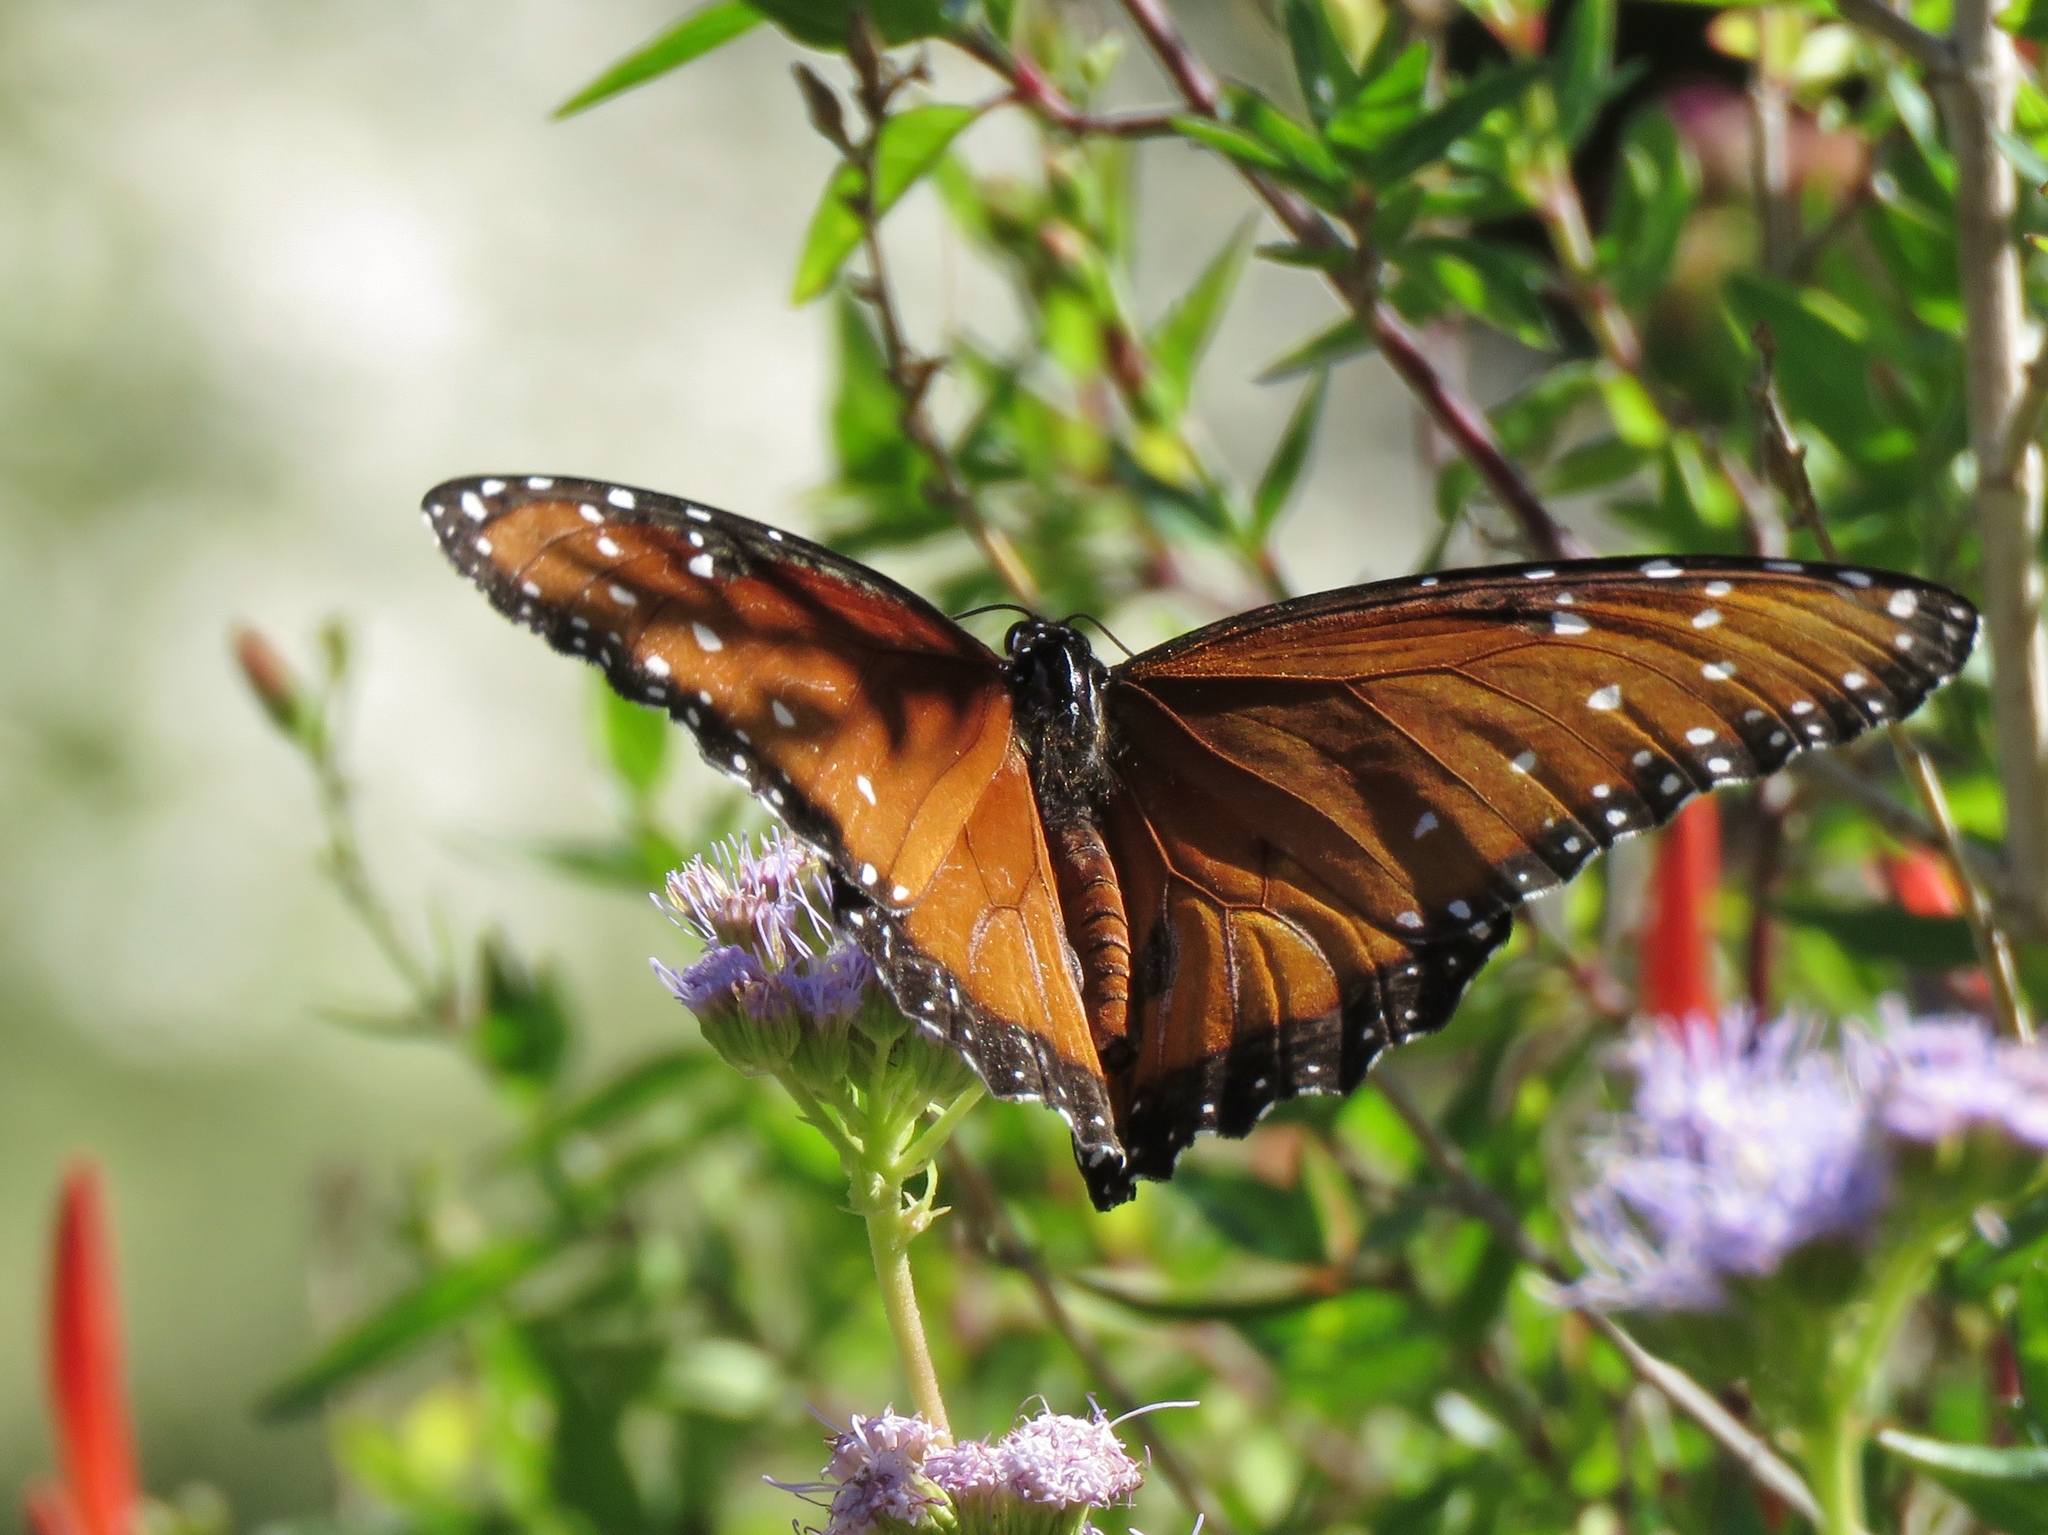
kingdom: Animalia
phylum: Arthropoda
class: Insecta
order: Lepidoptera
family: Nymphalidae
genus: Danaus
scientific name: Danaus gilippus
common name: Queen
